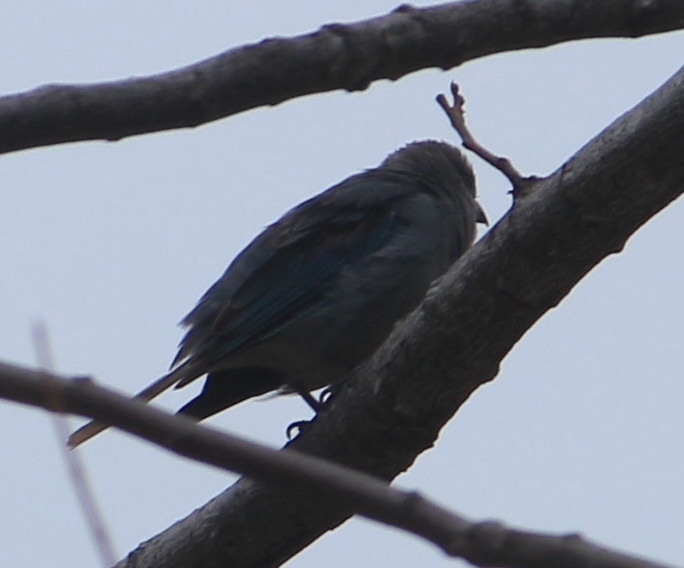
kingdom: Animalia
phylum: Chordata
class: Aves
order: Passeriformes
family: Thraupidae
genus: Thraupis
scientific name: Thraupis sayaca
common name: Sayaca tanager
